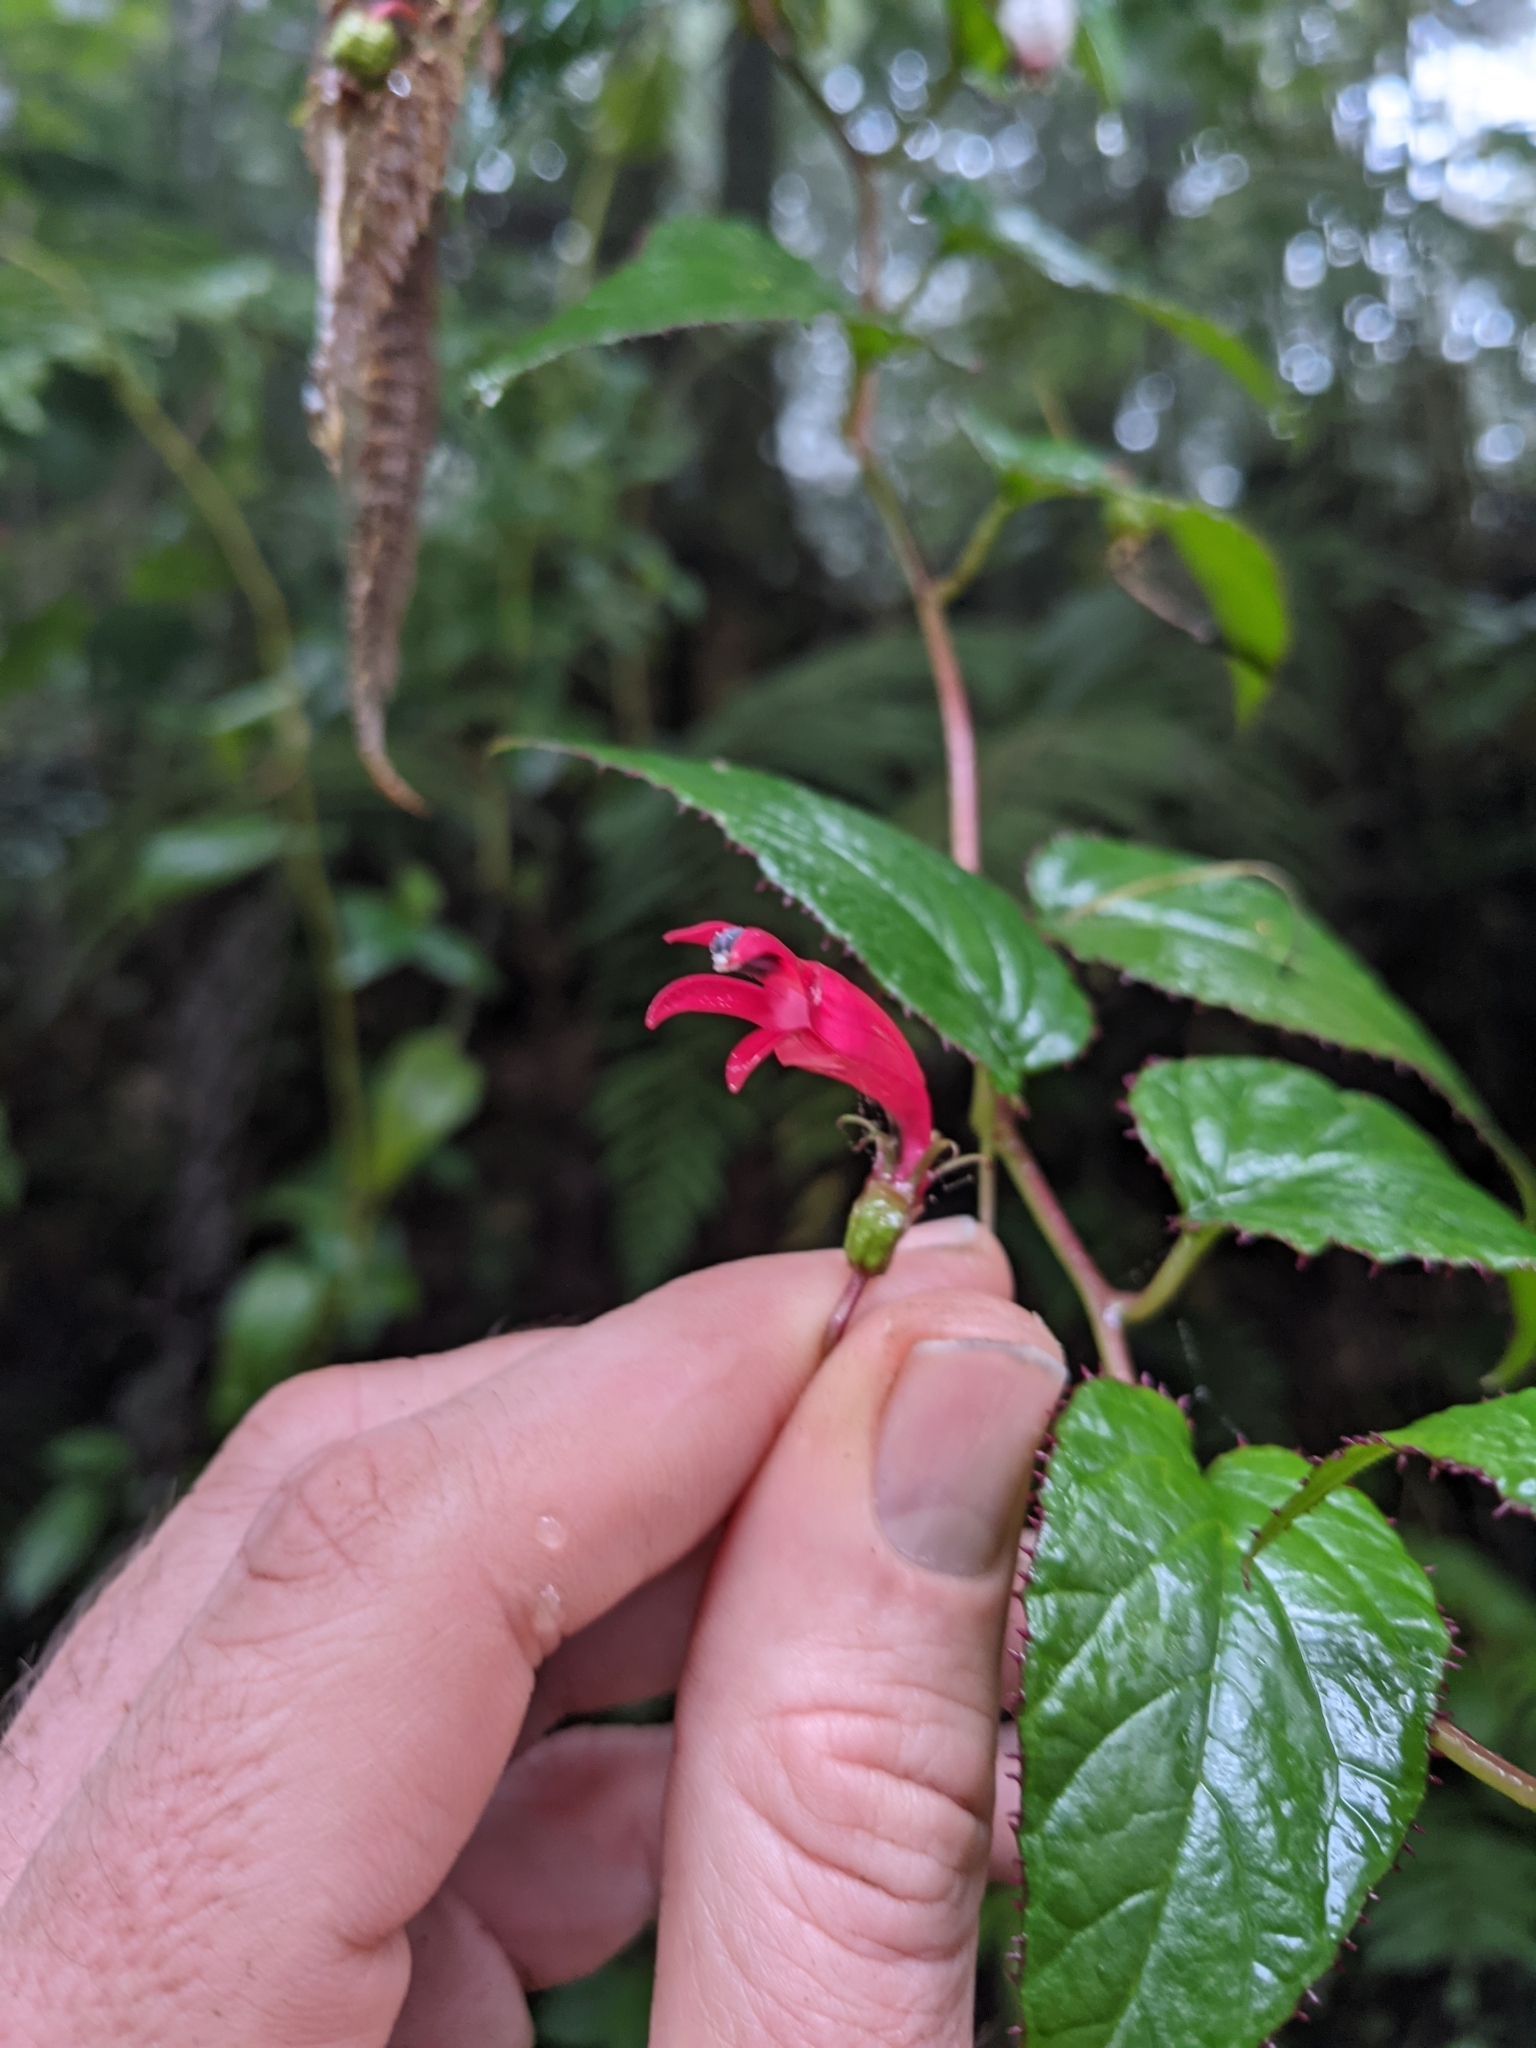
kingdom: Plantae
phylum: Tracheophyta
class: Magnoliopsida
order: Asterales
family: Campanulaceae
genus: Centropogon
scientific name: Centropogon costaricae
